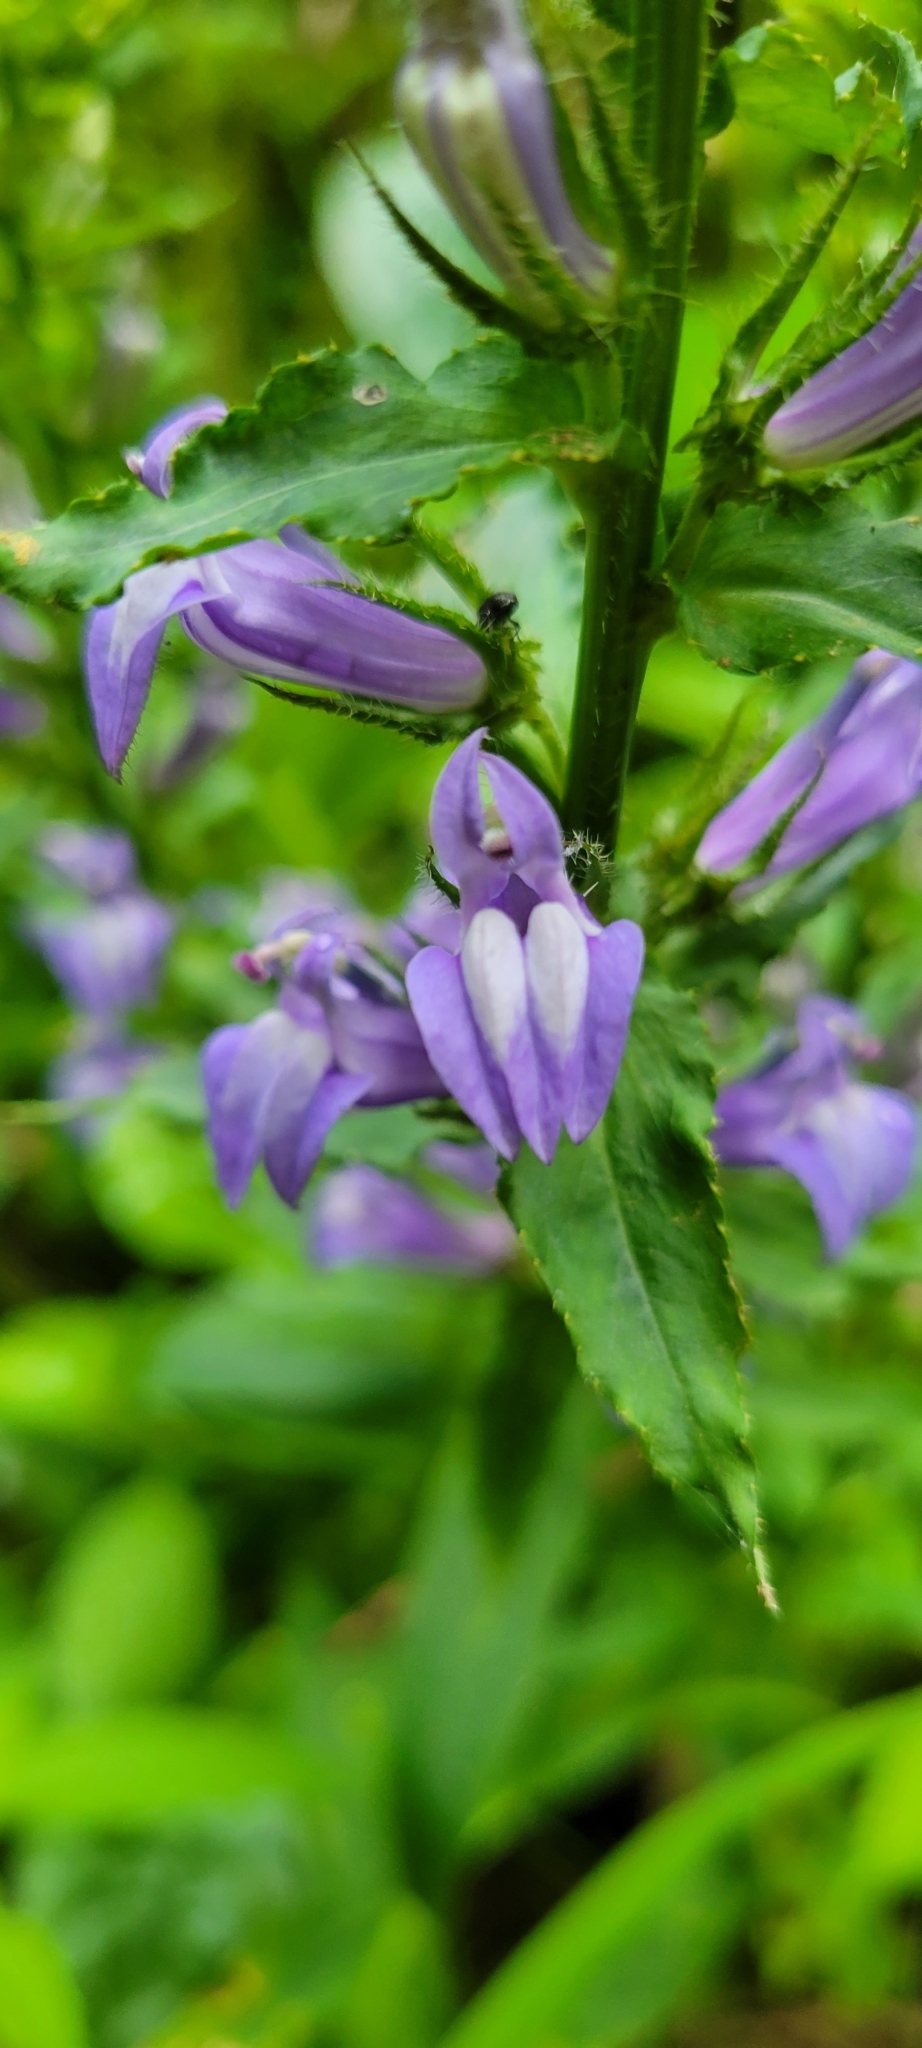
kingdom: Plantae
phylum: Tracheophyta
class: Magnoliopsida
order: Asterales
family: Campanulaceae
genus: Lobelia
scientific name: Lobelia siphilitica
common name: Great lobelia
